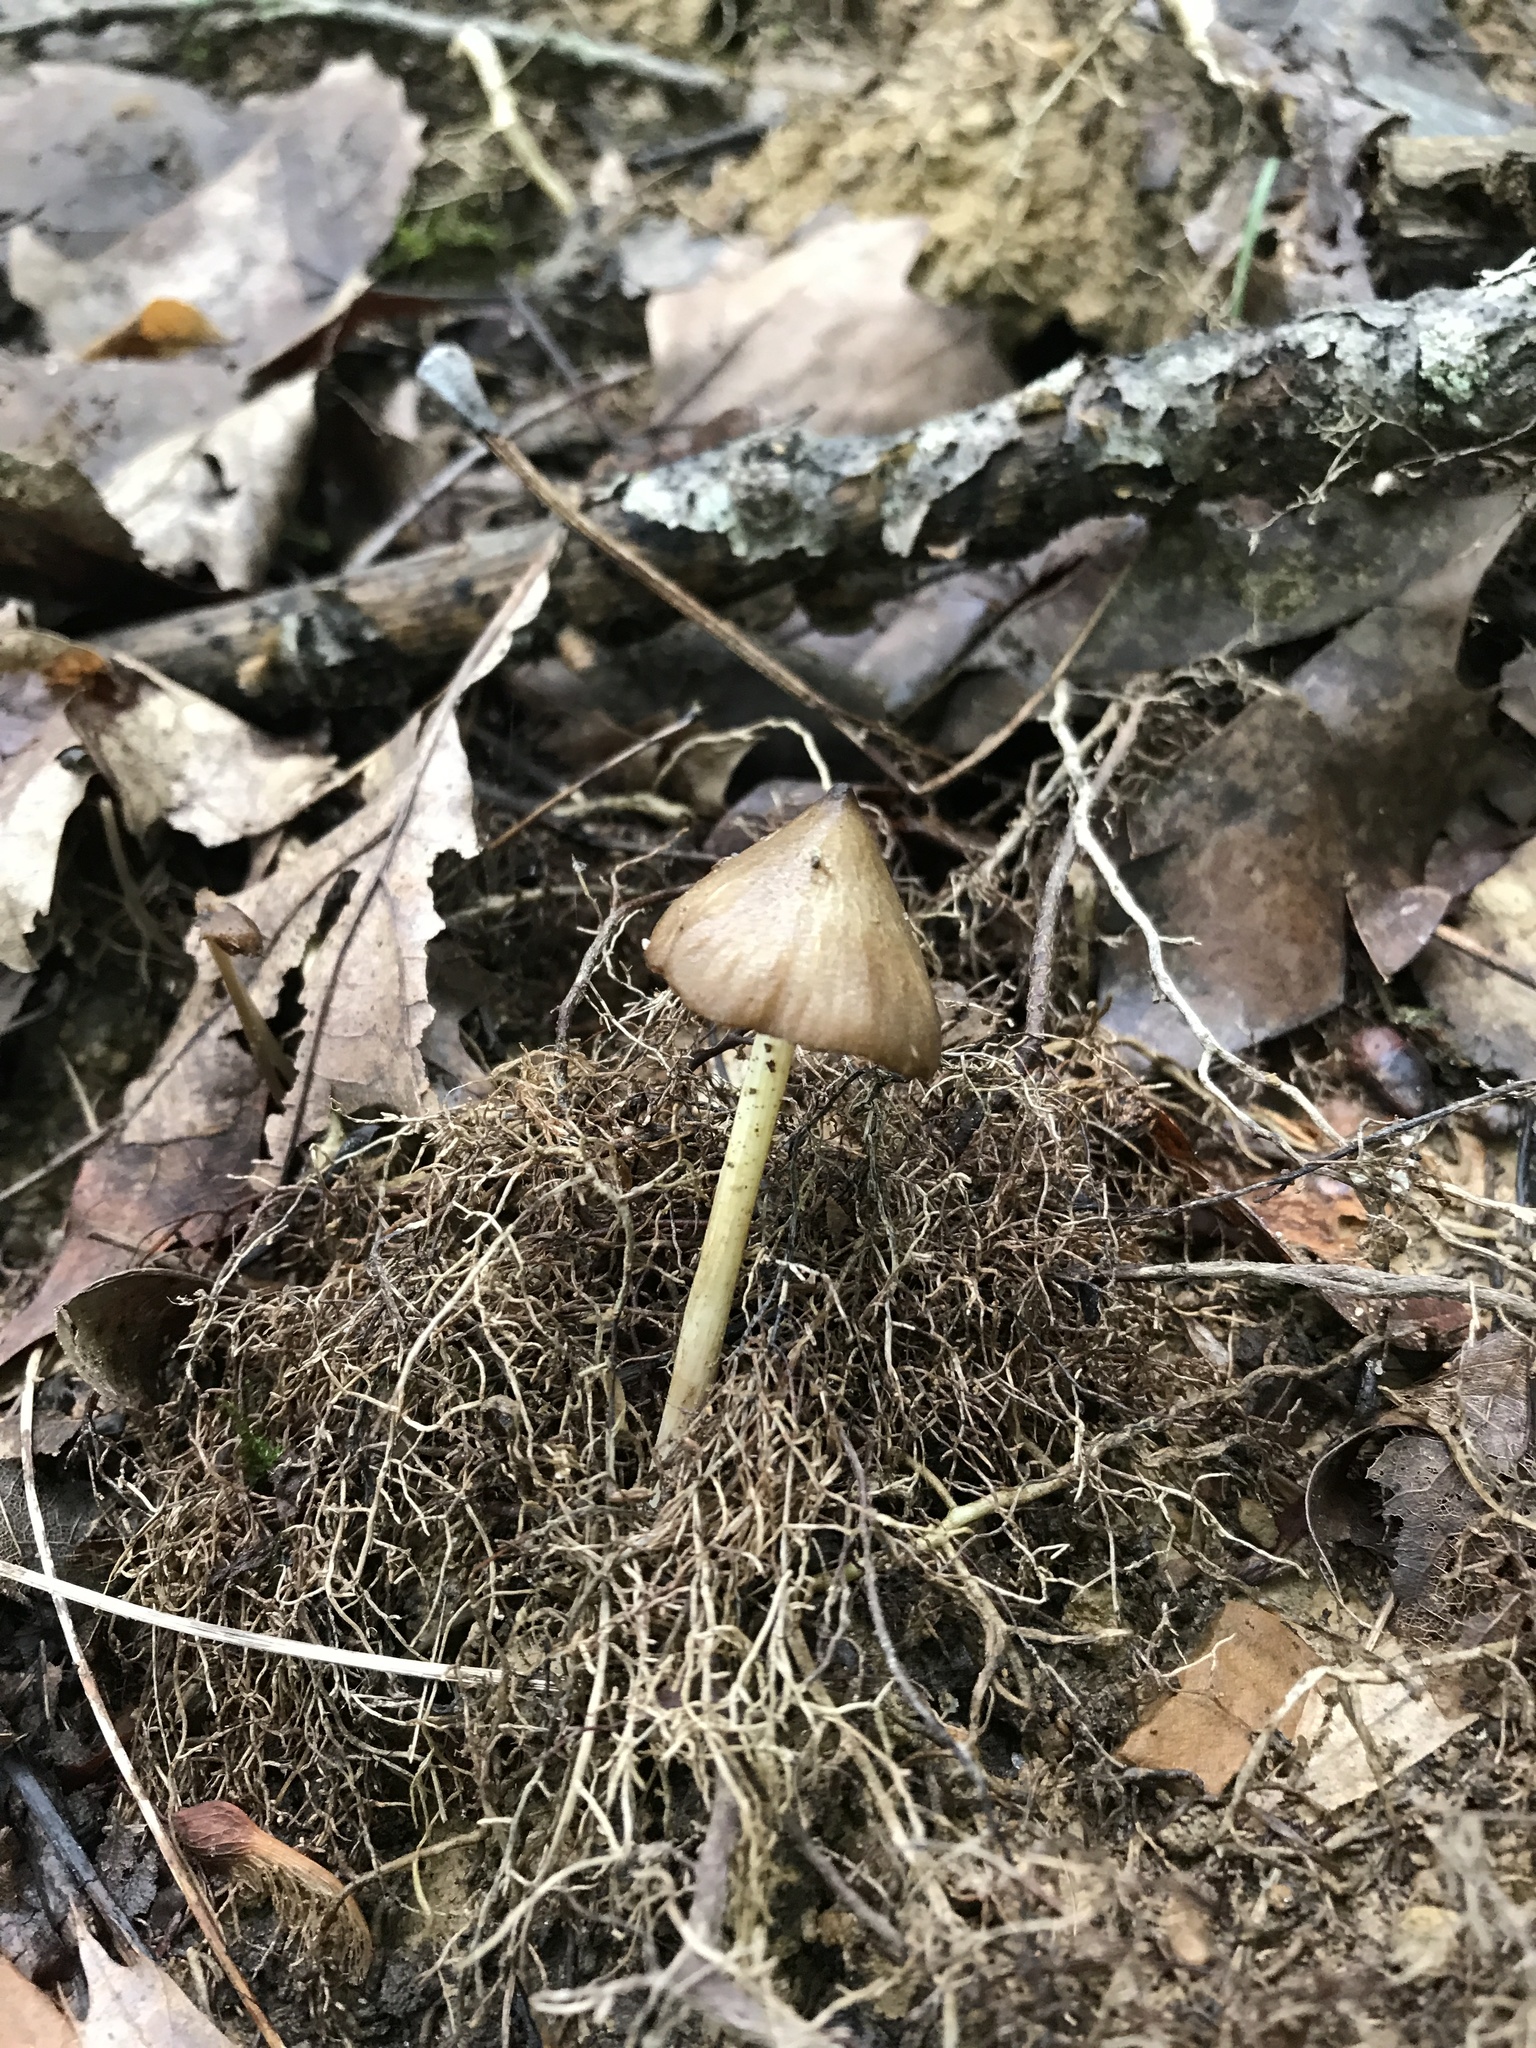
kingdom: Fungi
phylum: Basidiomycota
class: Agaricomycetes
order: Agaricales
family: Entolomataceae
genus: Entoloma
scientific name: Entoloma strictius
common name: Straight-stalked entoloma
